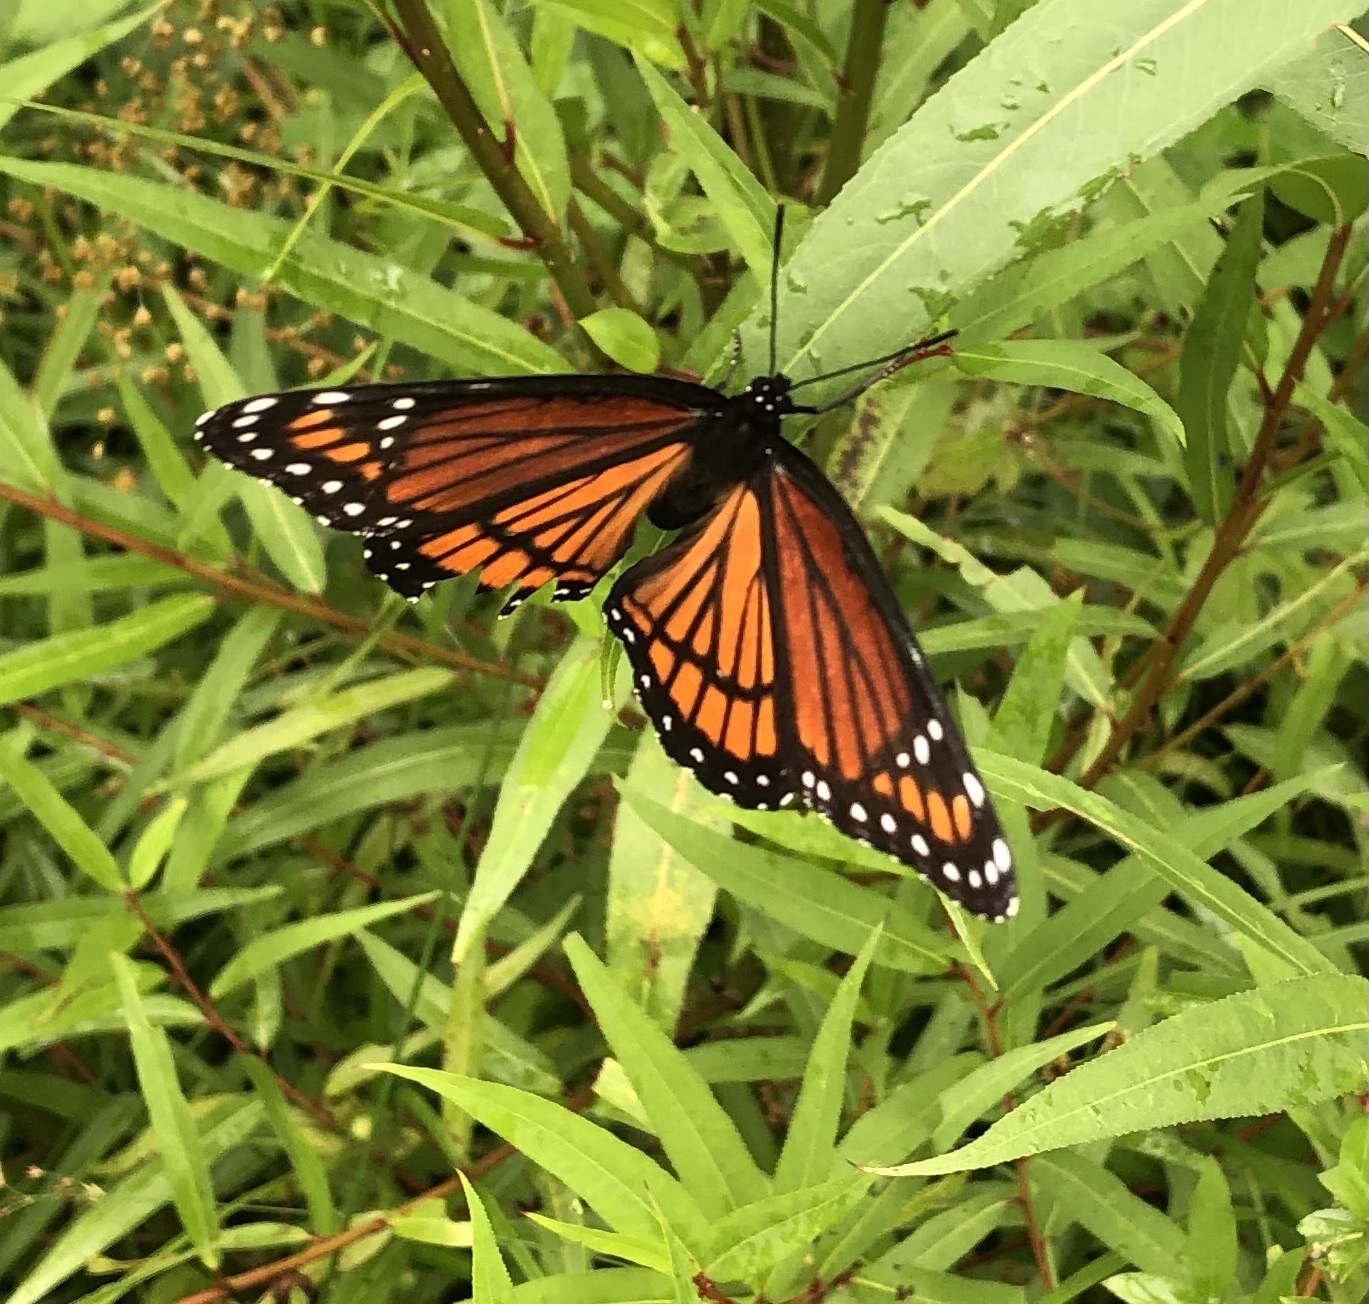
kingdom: Animalia
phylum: Arthropoda
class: Insecta
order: Lepidoptera
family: Nymphalidae
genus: Limenitis
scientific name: Limenitis archippus
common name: Viceroy
